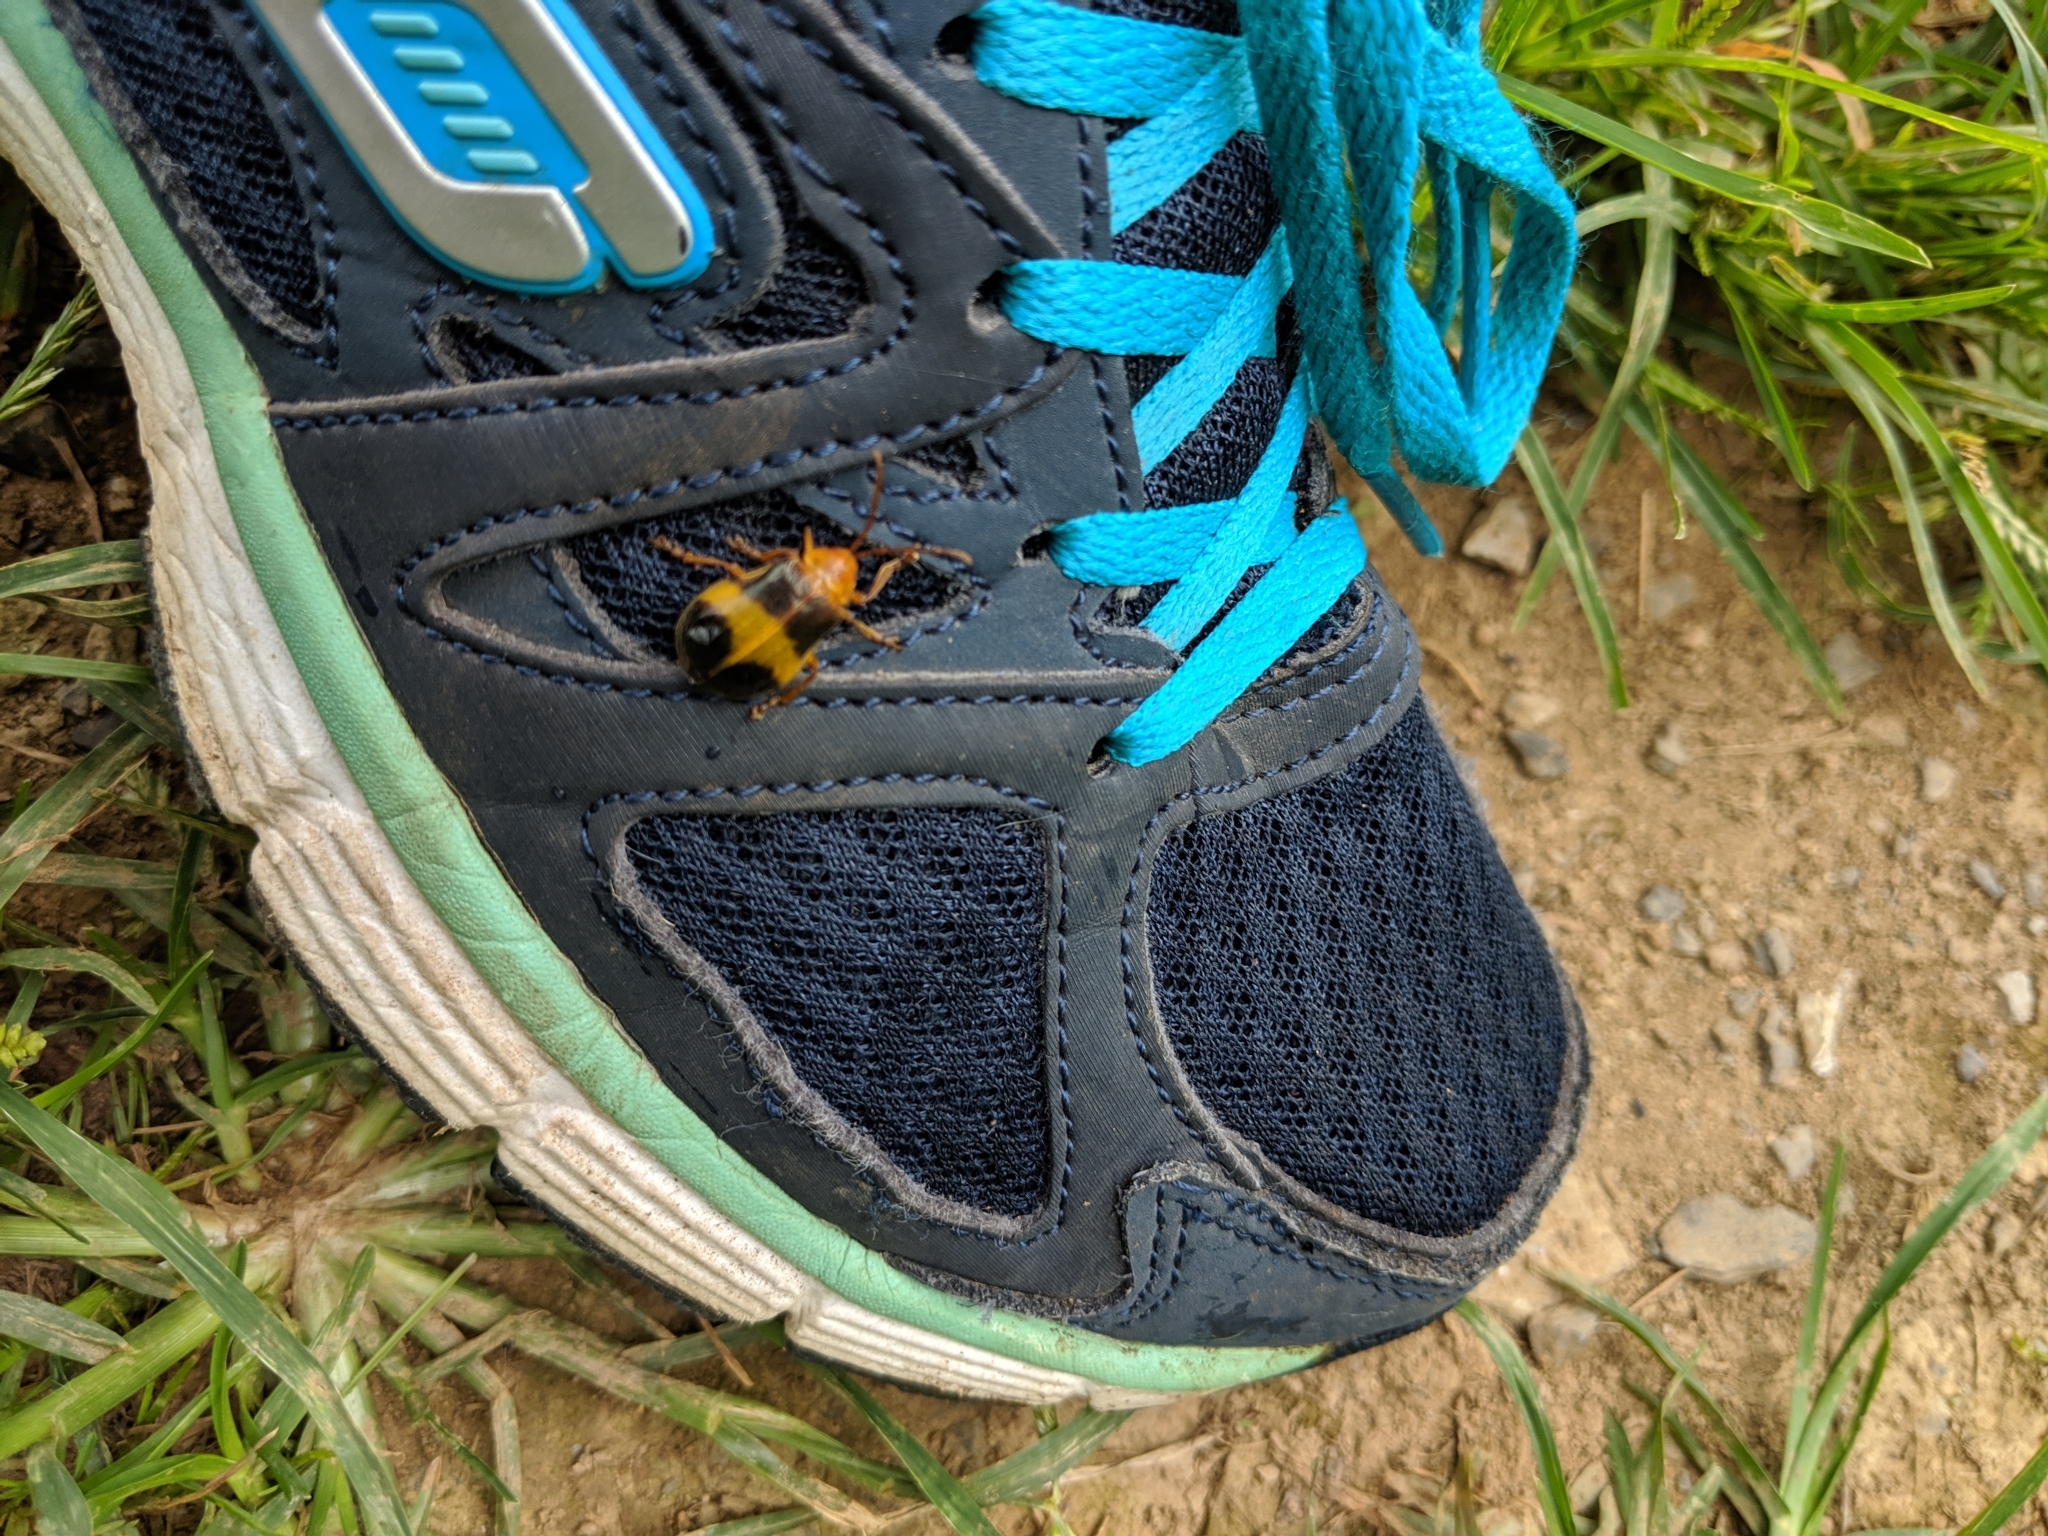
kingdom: Animalia
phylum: Arthropoda
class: Insecta
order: Coleoptera
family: Chrysomelidae
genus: Monocesta
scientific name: Monocesta coryli
